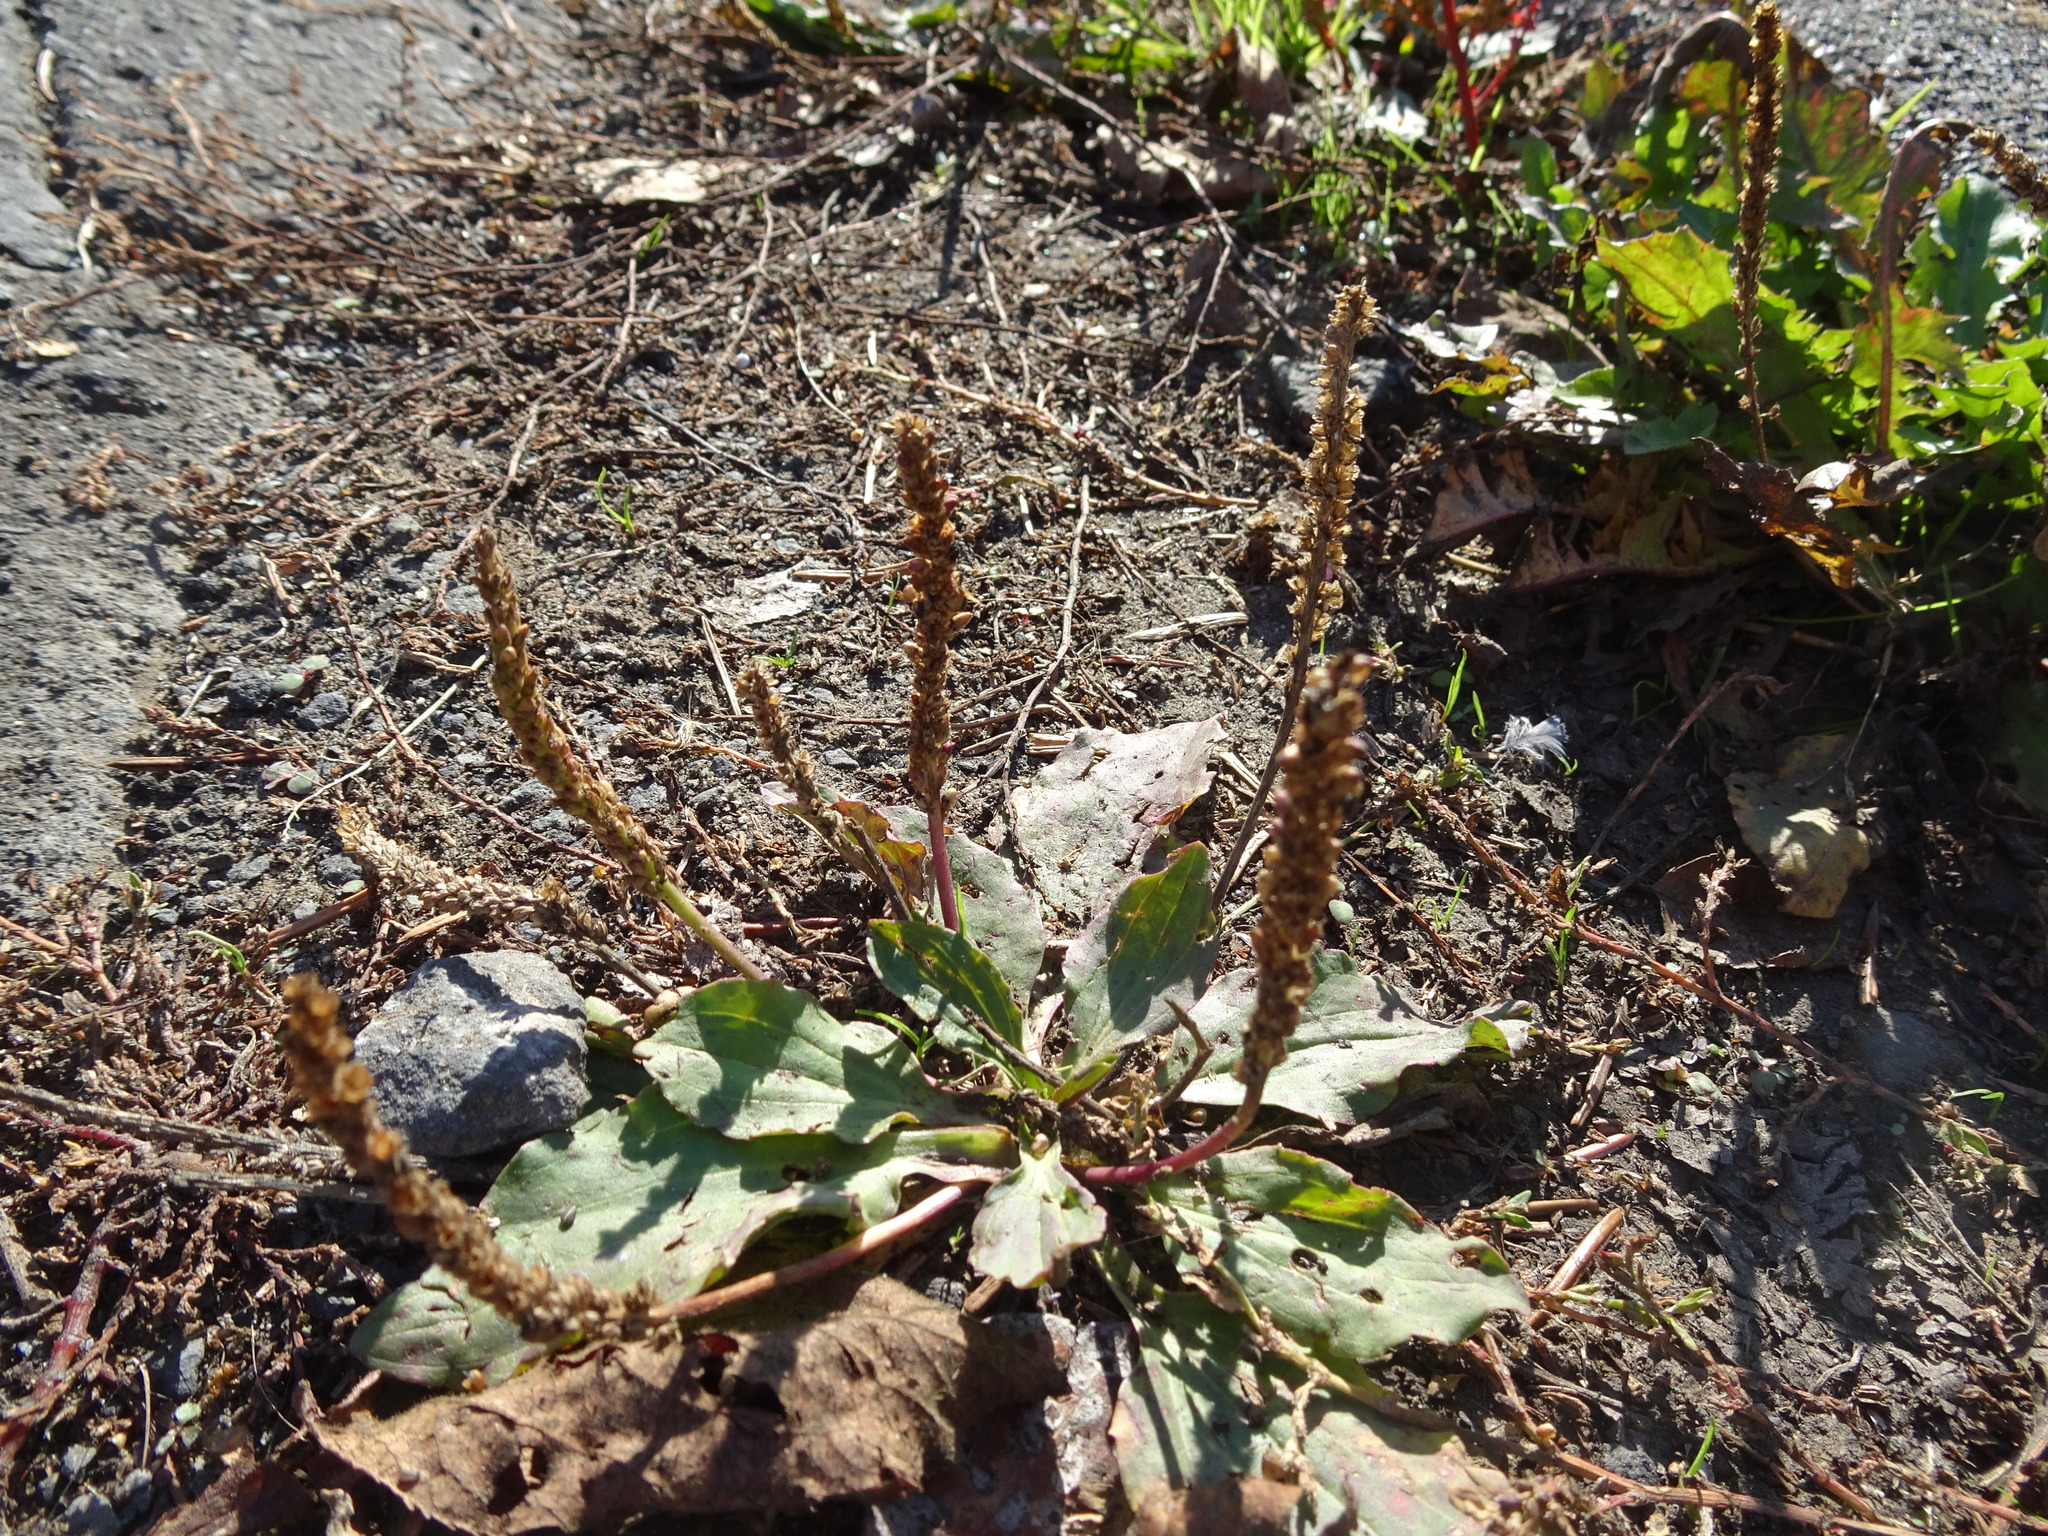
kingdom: Plantae
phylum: Tracheophyta
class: Magnoliopsida
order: Lamiales
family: Plantaginaceae
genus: Plantago
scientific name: Plantago major
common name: Common plantain
